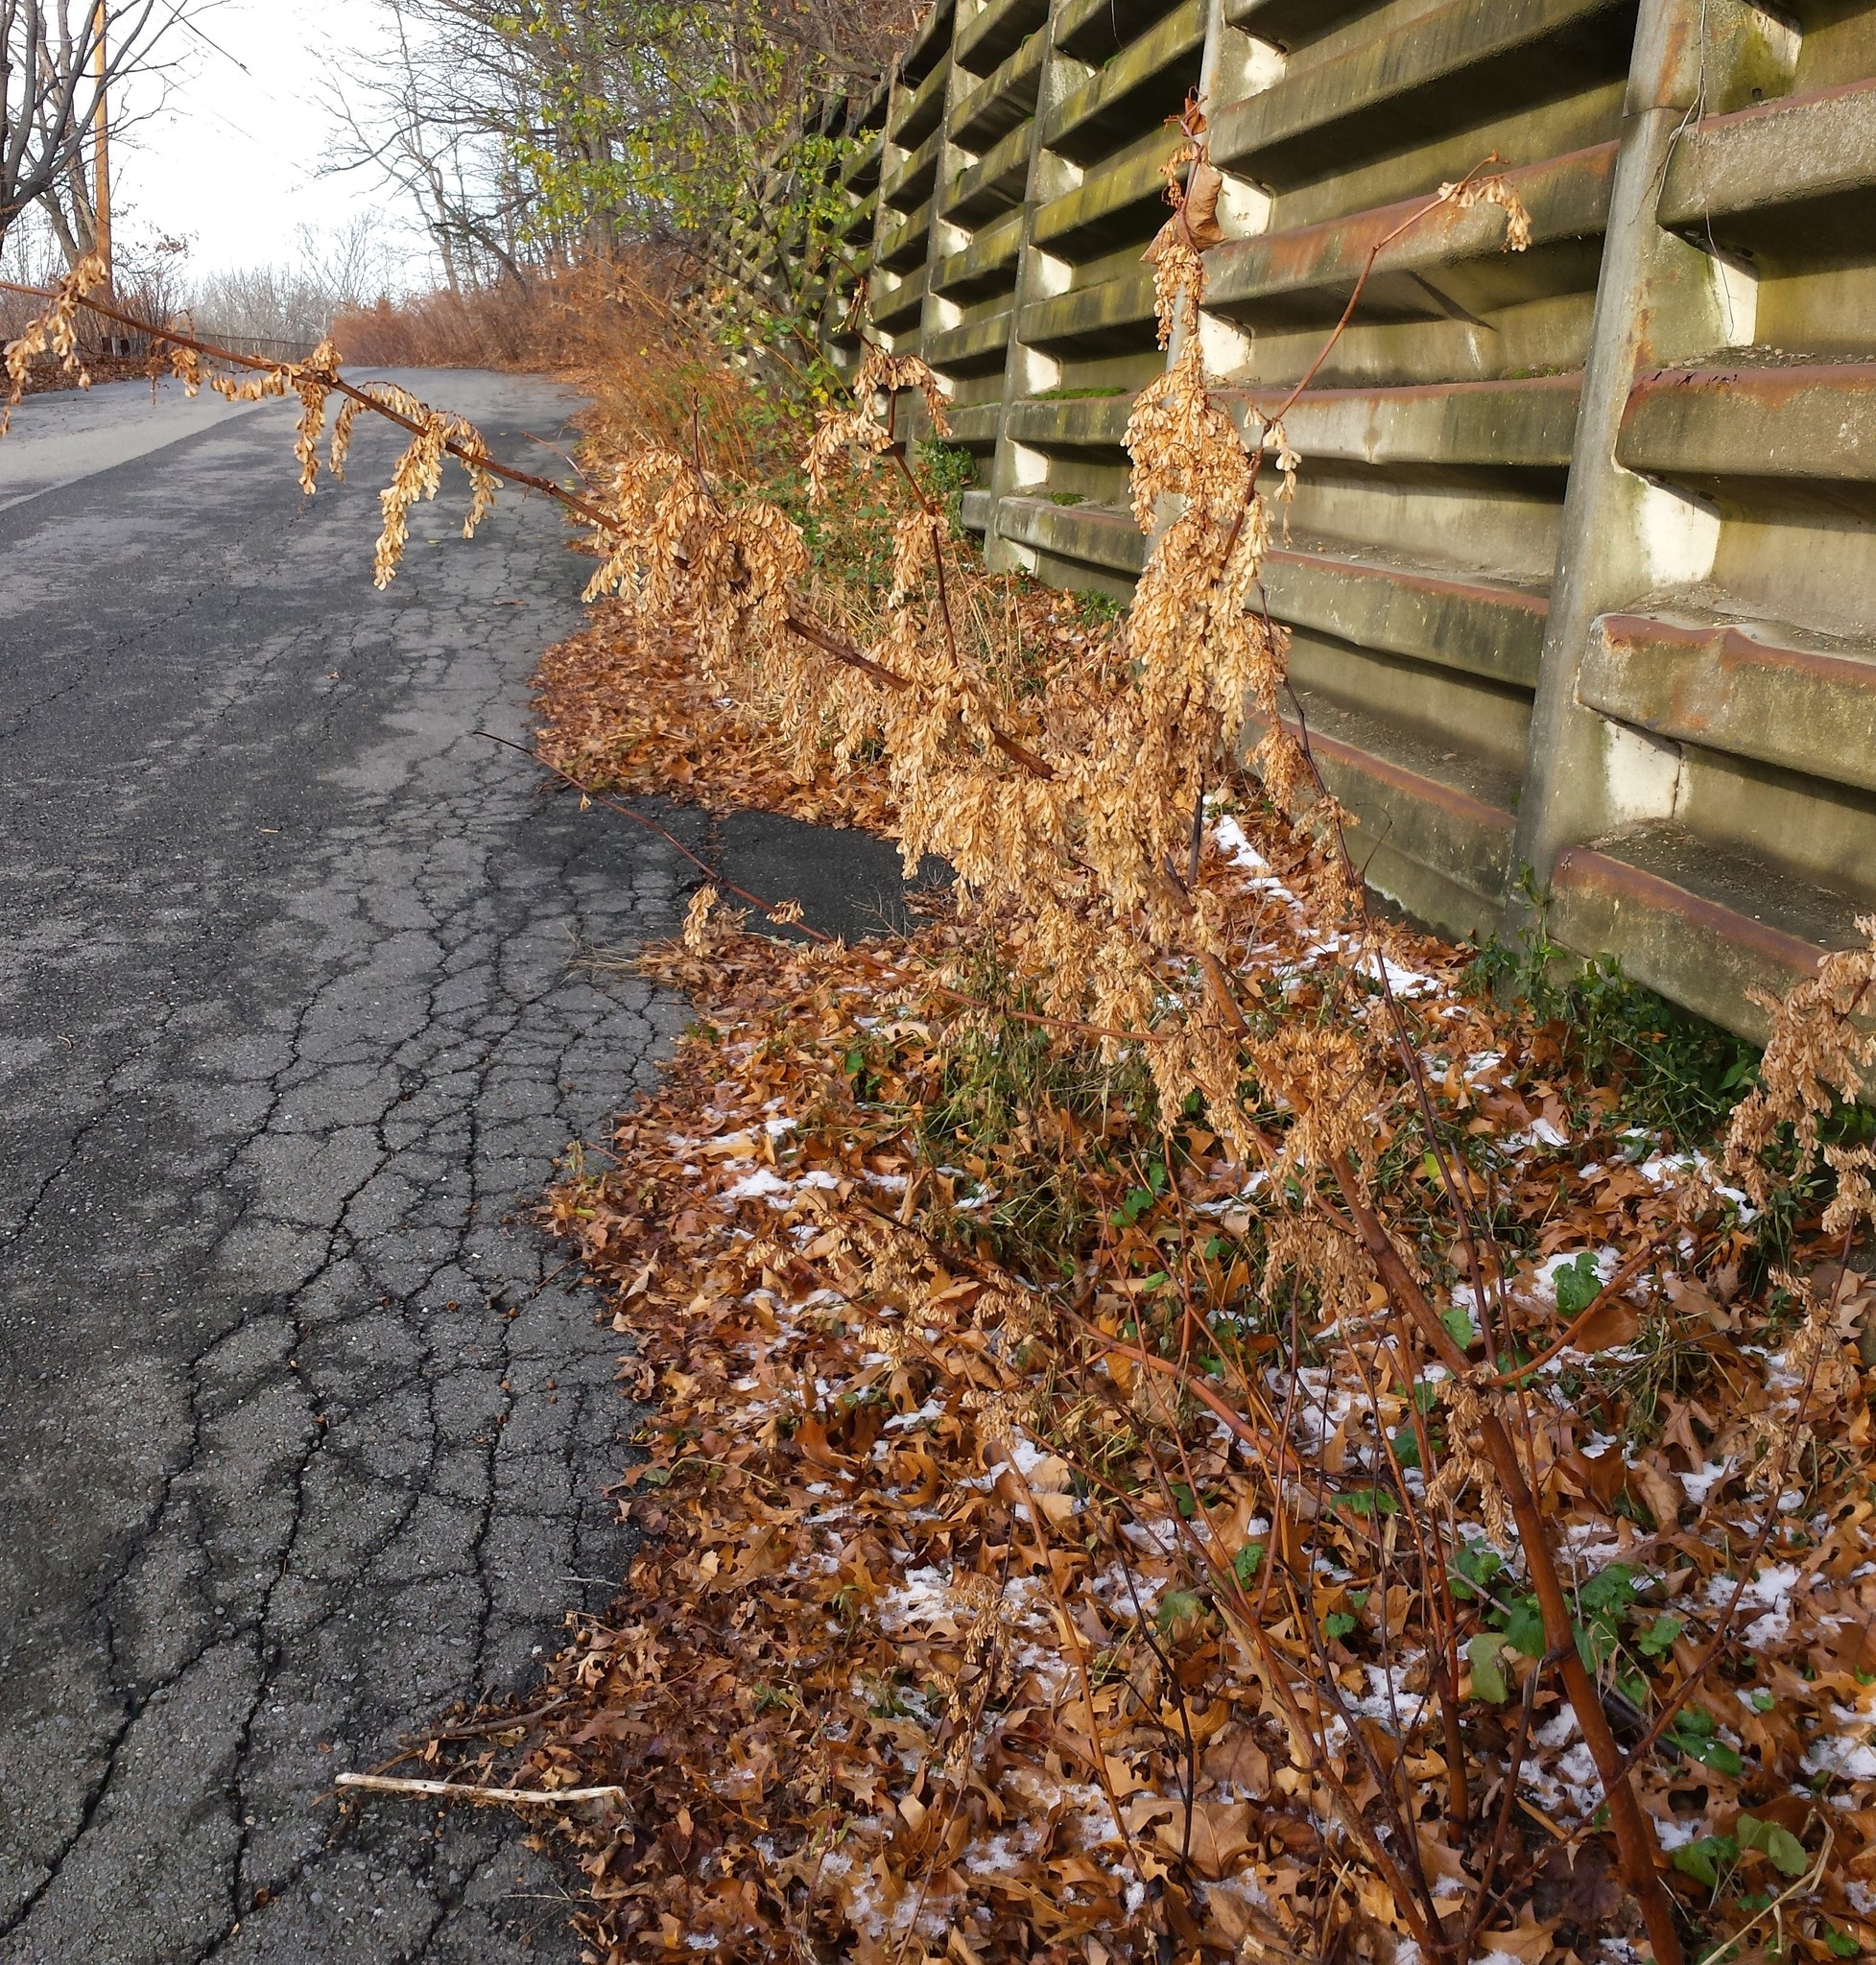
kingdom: Plantae
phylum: Tracheophyta
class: Magnoliopsida
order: Caryophyllales
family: Polygonaceae
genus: Reynoutria
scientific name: Reynoutria japonica
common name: Japanese knotweed
